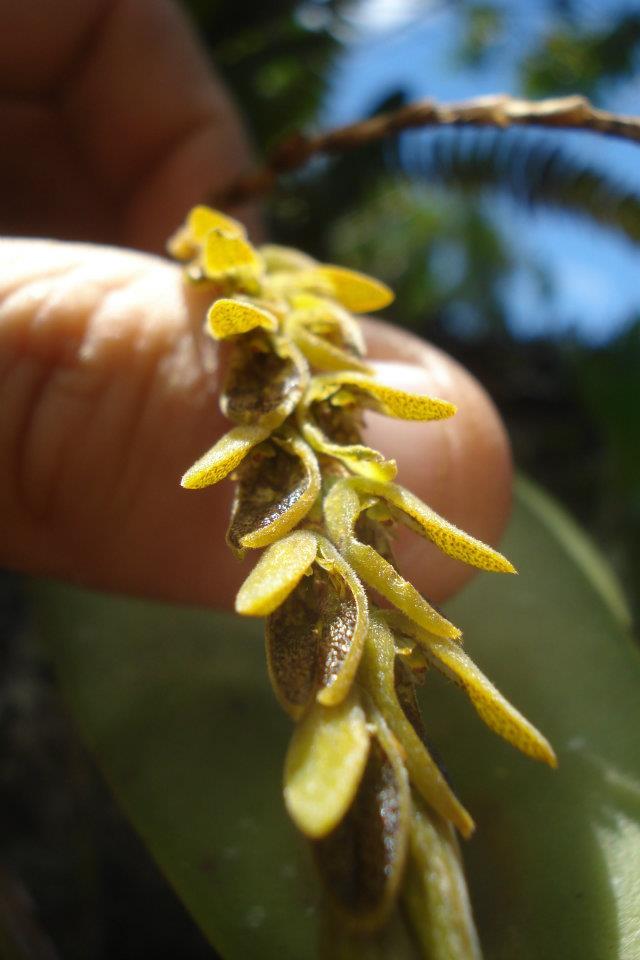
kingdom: Plantae
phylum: Tracheophyta
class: Liliopsida
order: Asparagales
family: Orchidaceae
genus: Acianthera
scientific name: Acianthera saurocephala
